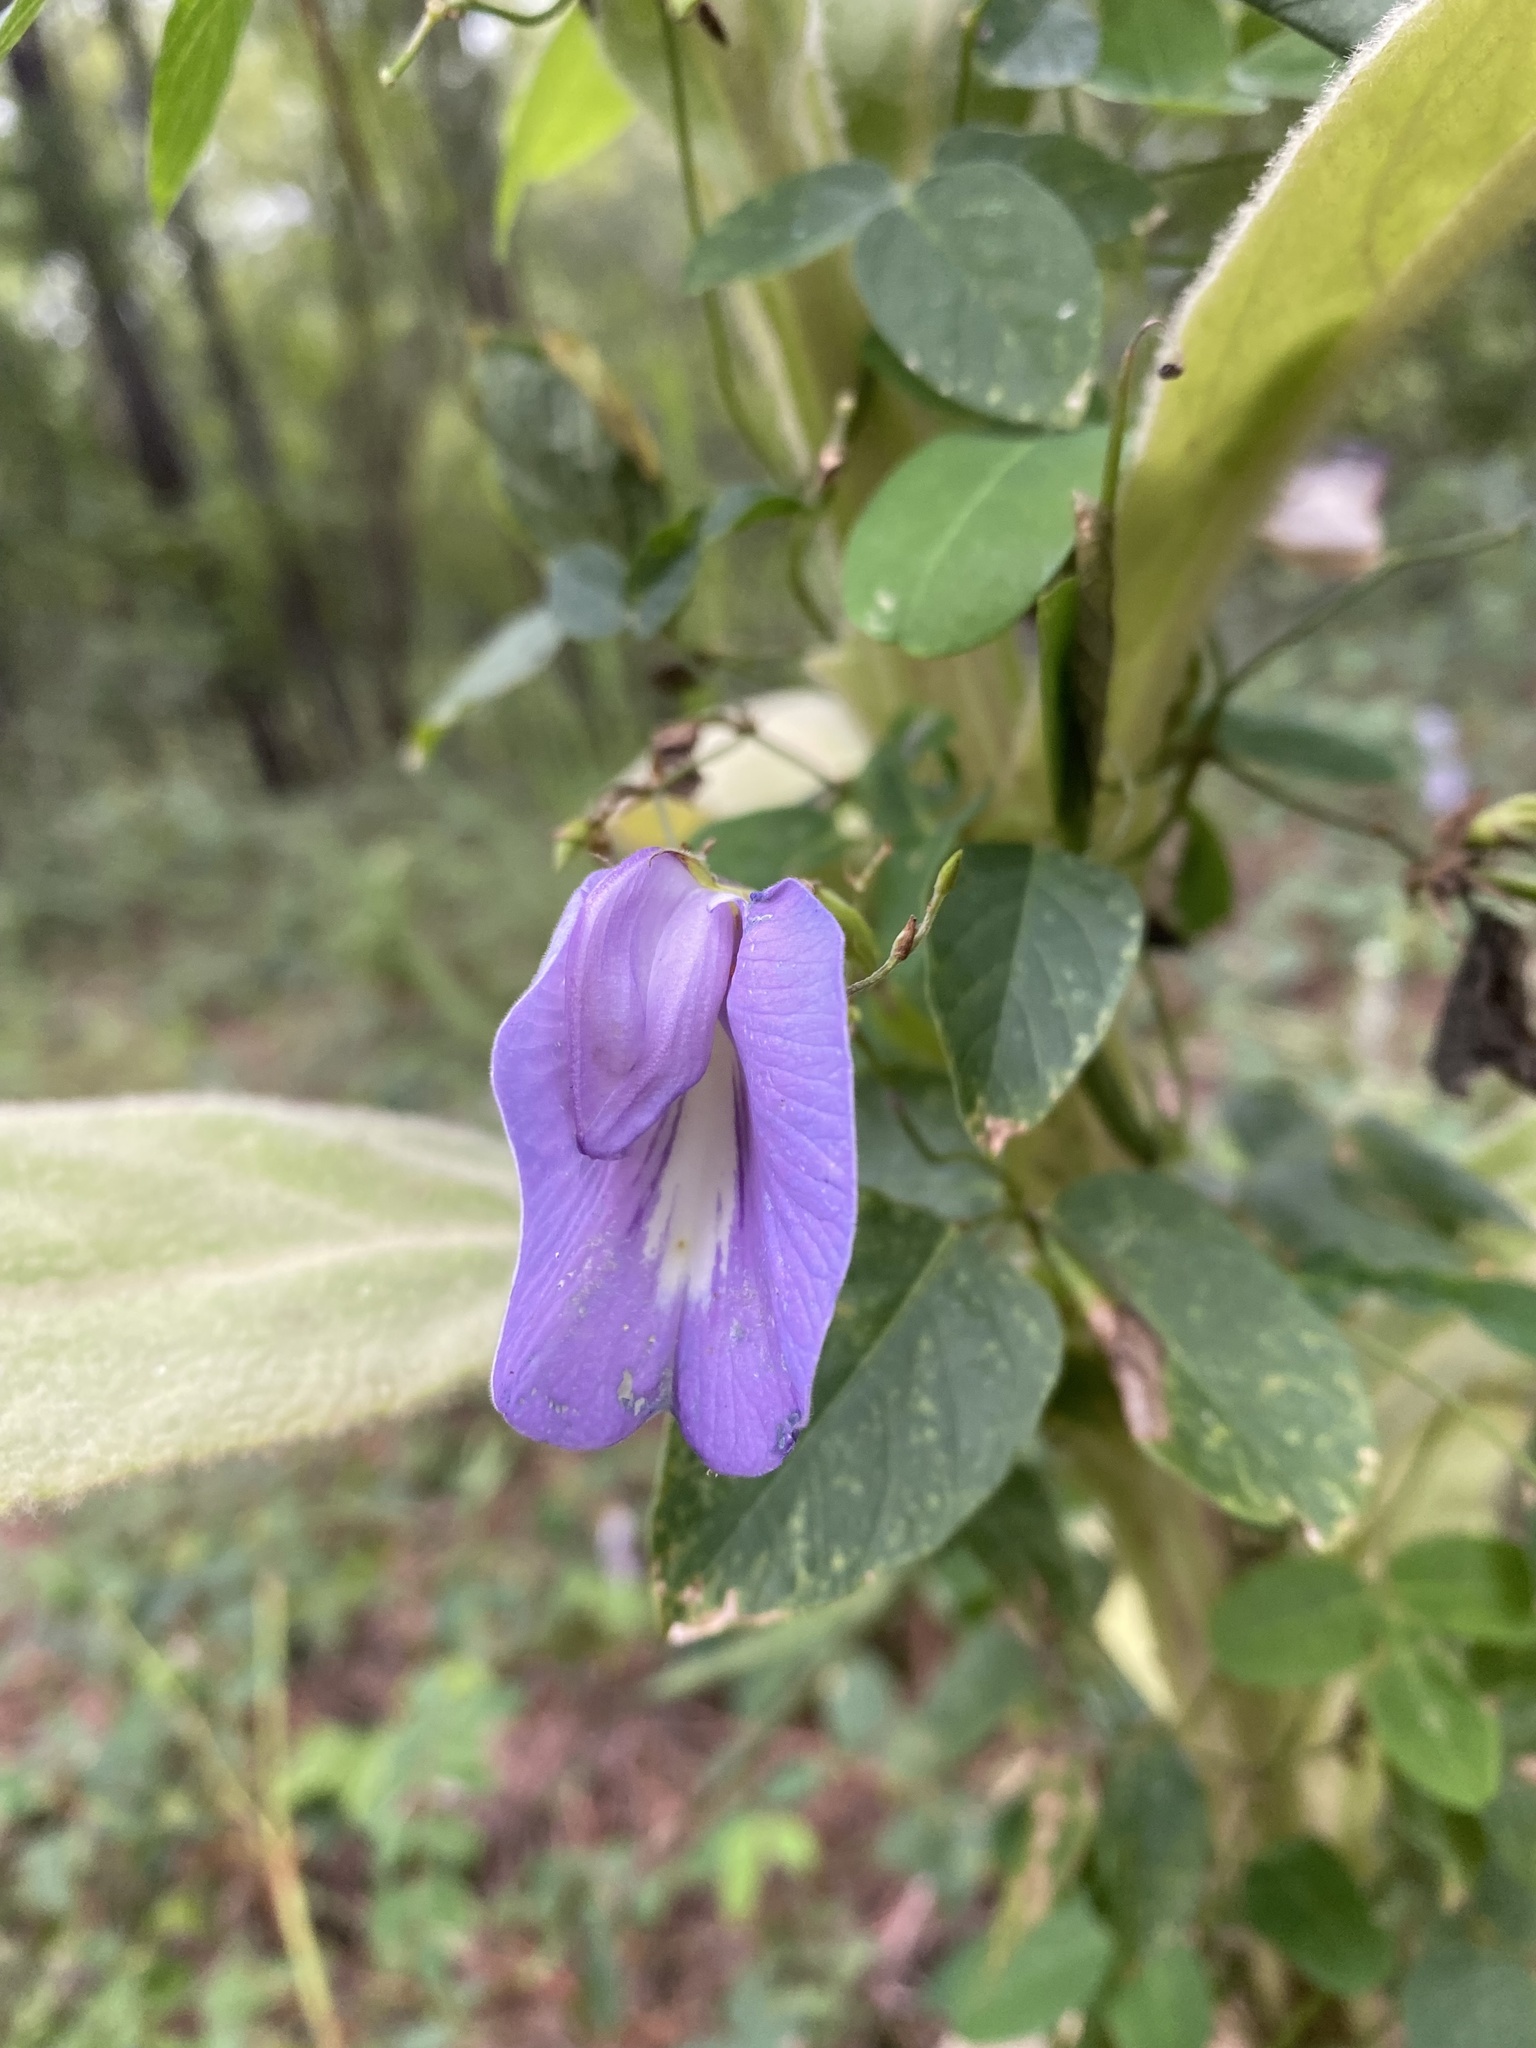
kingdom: Plantae
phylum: Tracheophyta
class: Magnoliopsida
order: Fabales
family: Fabaceae
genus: Centrosema
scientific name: Centrosema virginianum
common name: Butterfly-pea
